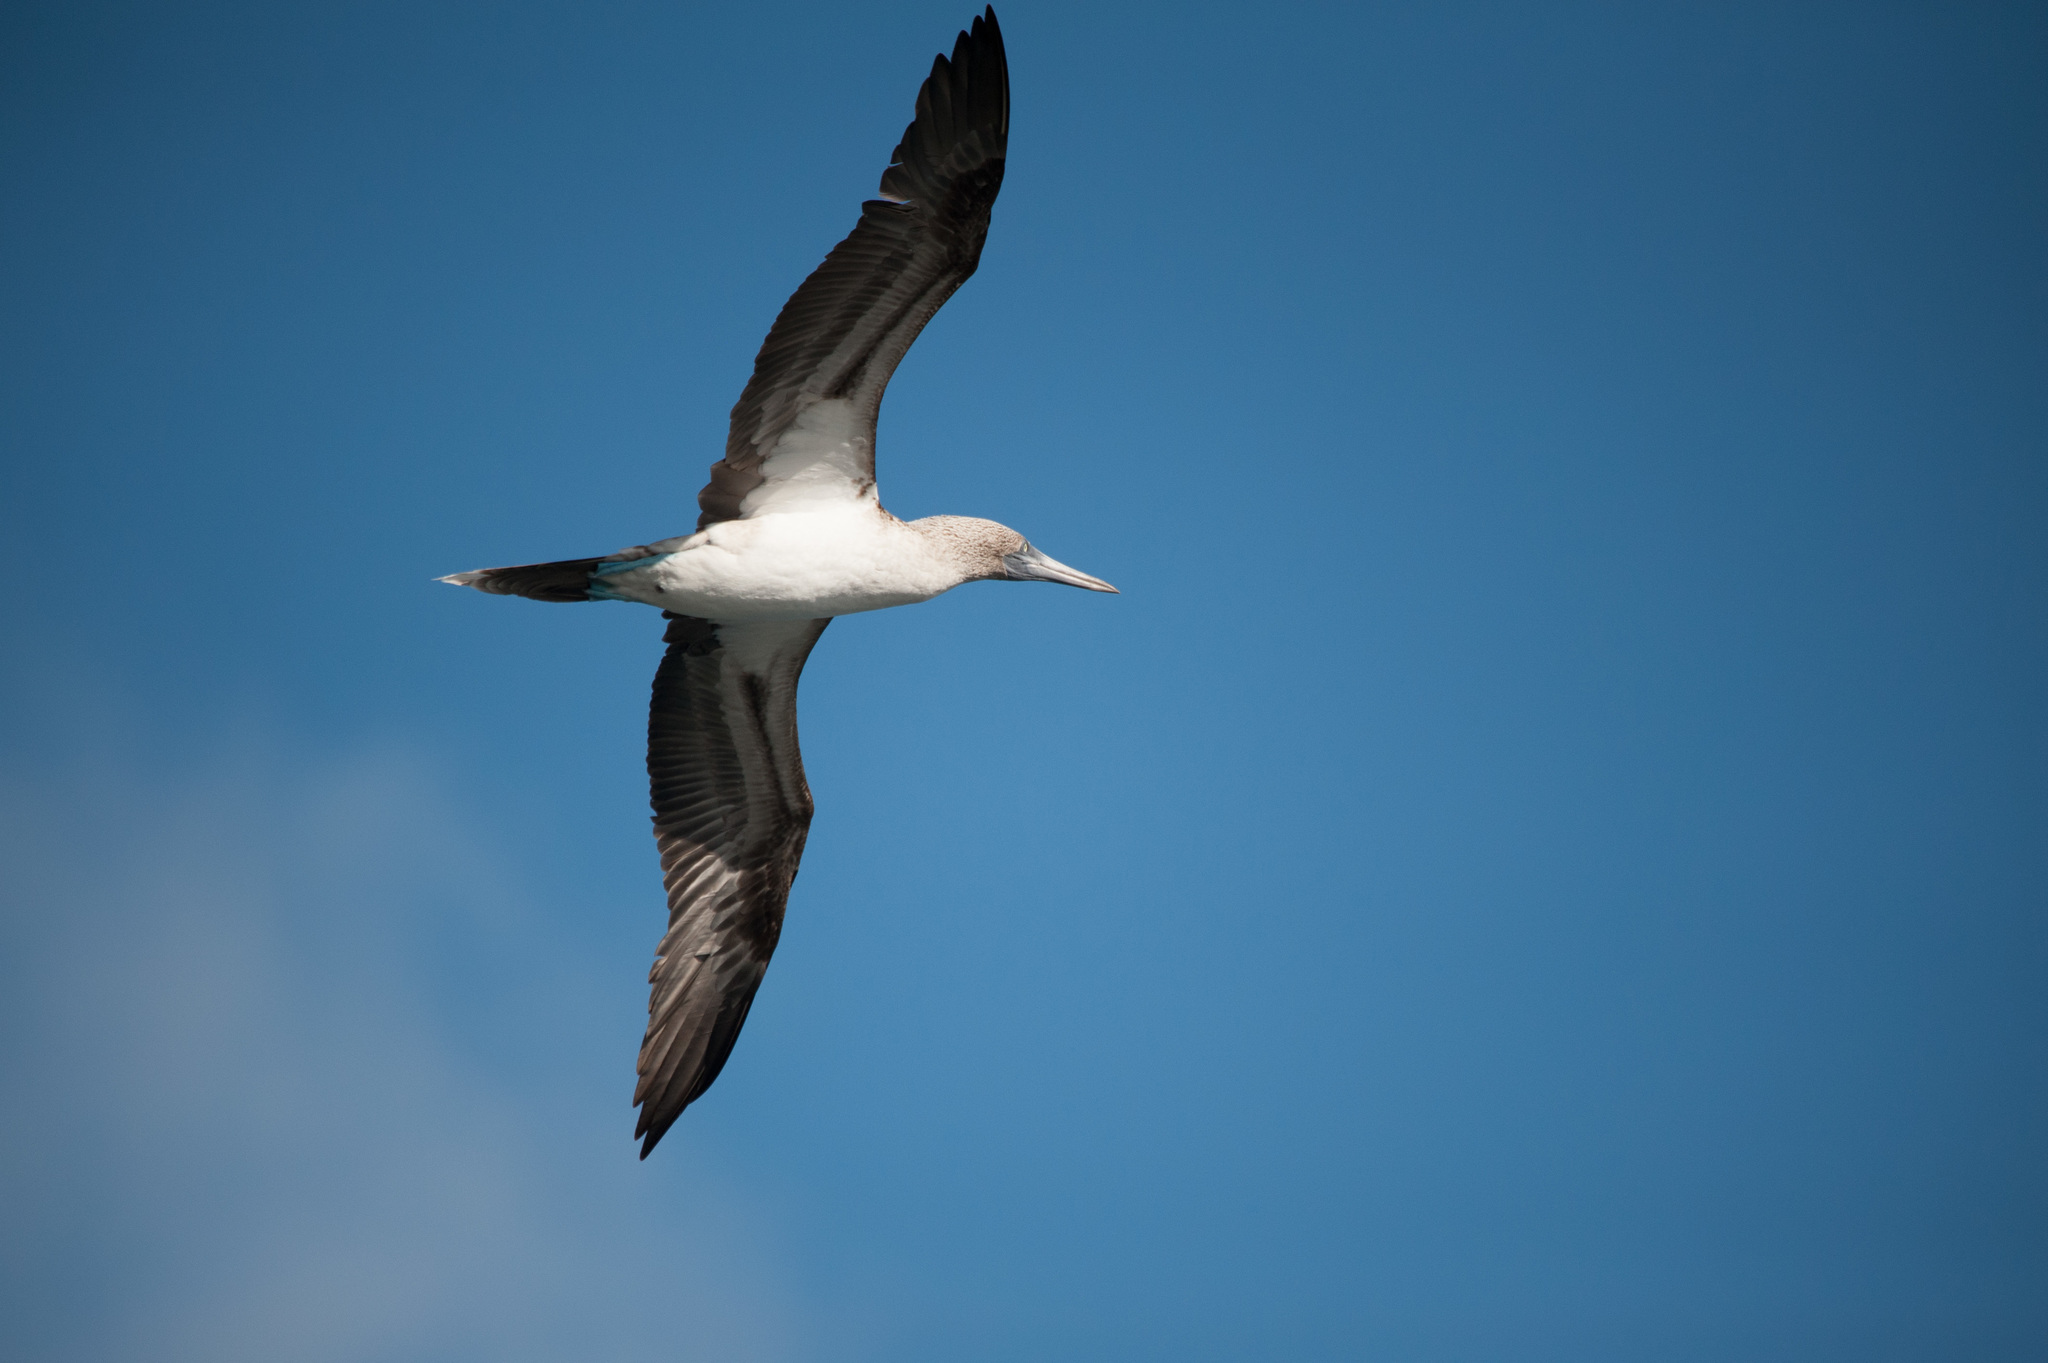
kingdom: Animalia
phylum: Chordata
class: Aves
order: Suliformes
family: Sulidae
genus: Sula
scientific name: Sula nebouxii
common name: Blue-footed booby
